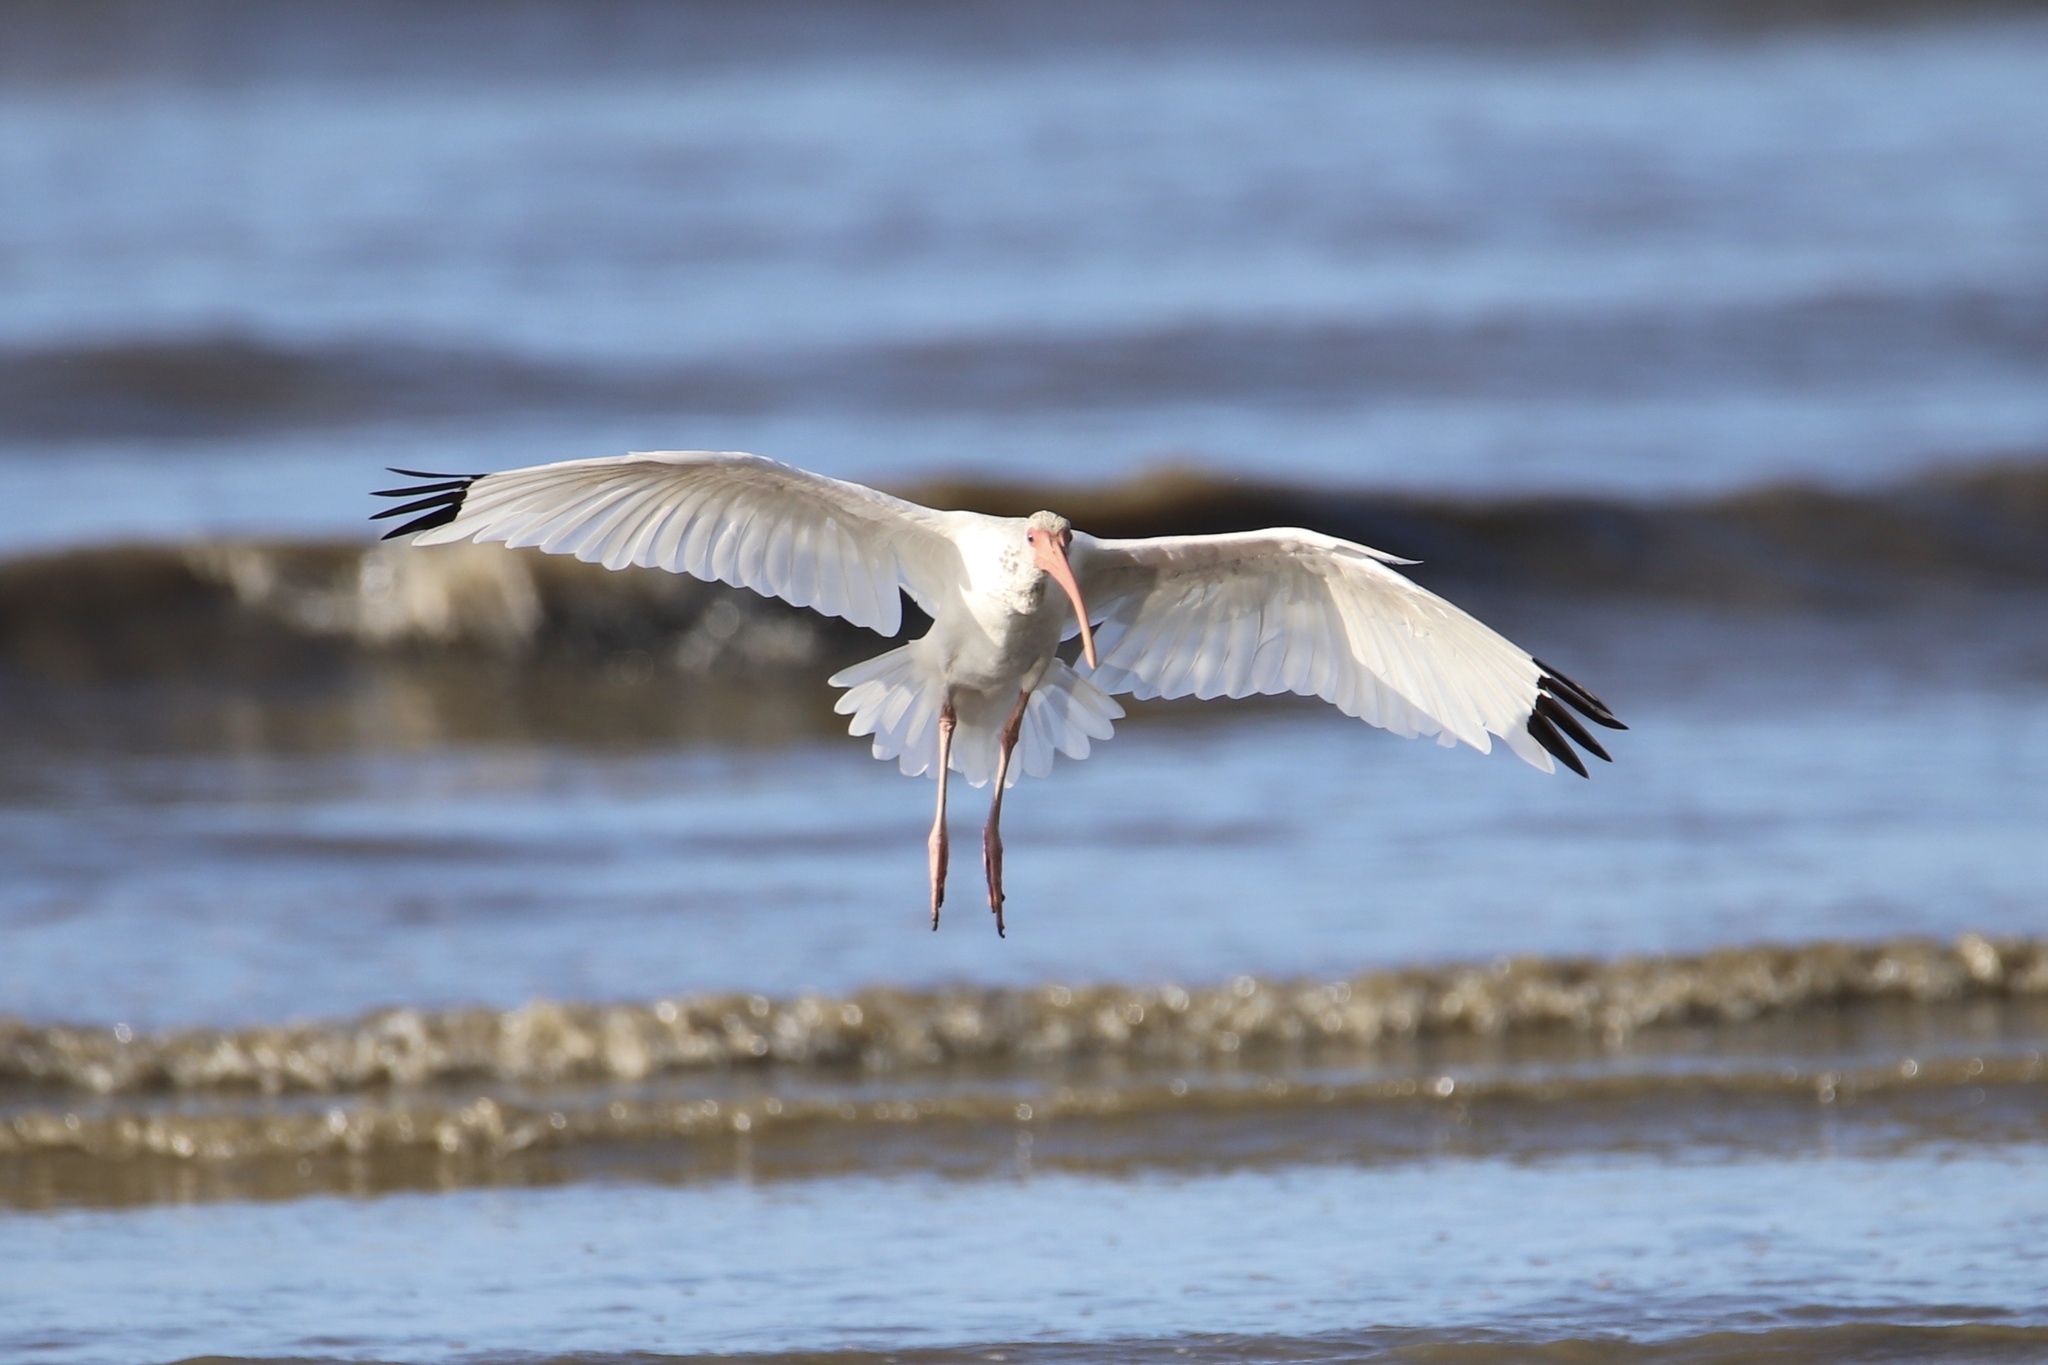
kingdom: Animalia
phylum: Chordata
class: Aves
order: Pelecaniformes
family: Threskiornithidae
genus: Eudocimus
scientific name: Eudocimus albus
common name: White ibis
